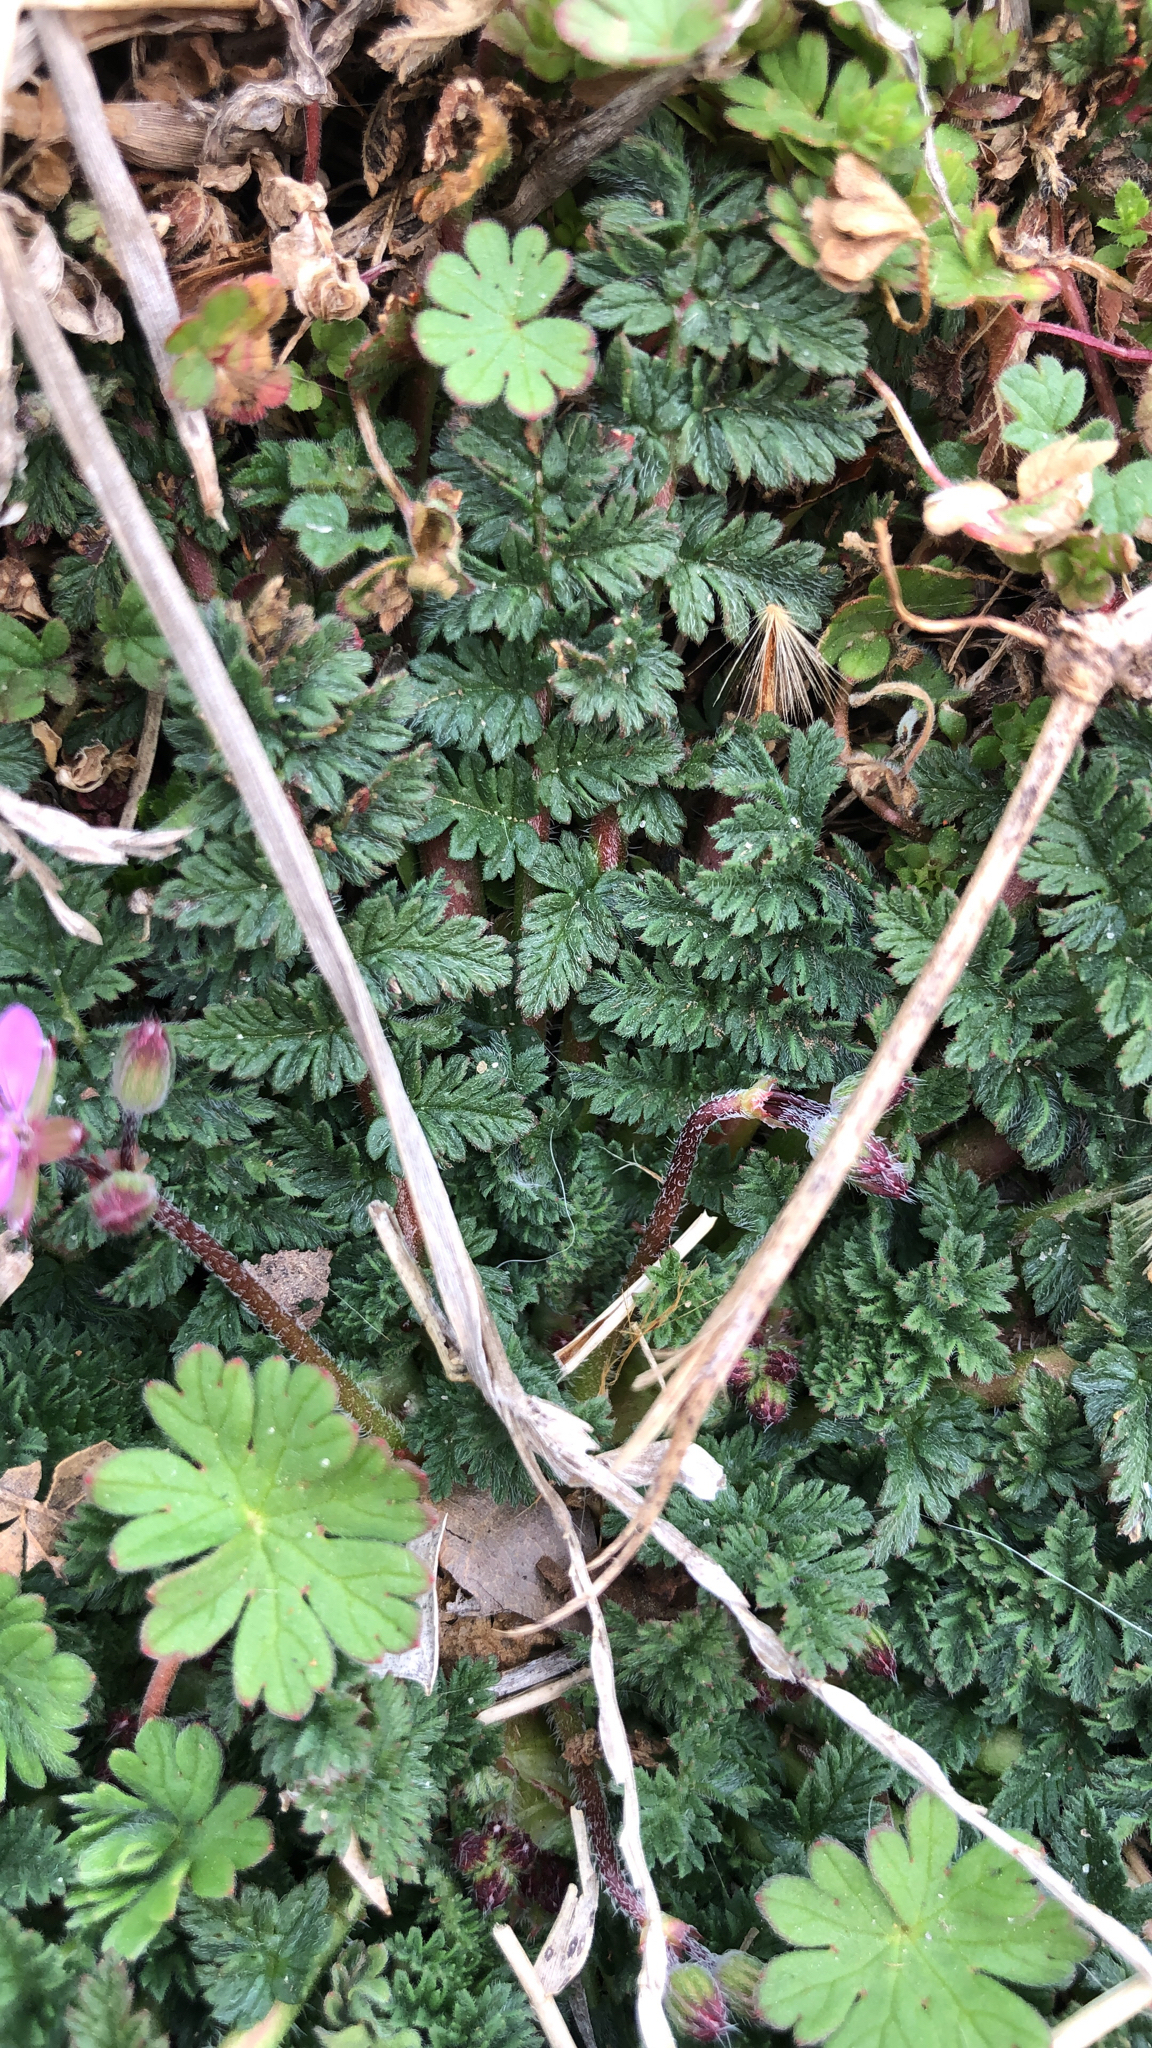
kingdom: Plantae
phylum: Tracheophyta
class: Magnoliopsida
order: Geraniales
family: Geraniaceae
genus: Erodium
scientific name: Erodium cicutarium
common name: Common stork's-bill
